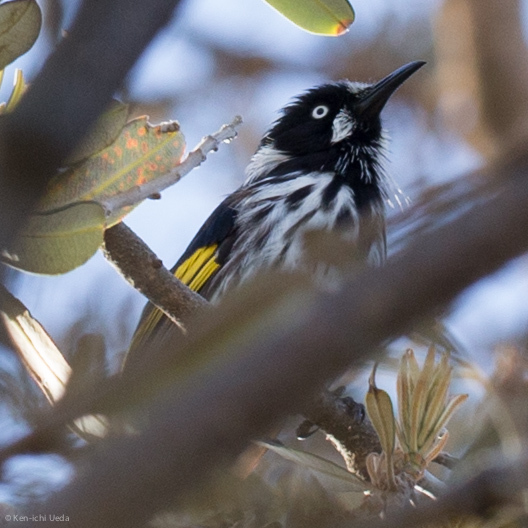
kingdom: Animalia
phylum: Chordata
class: Aves
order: Passeriformes
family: Meliphagidae
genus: Phylidonyris
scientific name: Phylidonyris novaehollandiae
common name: New holland honeyeater
